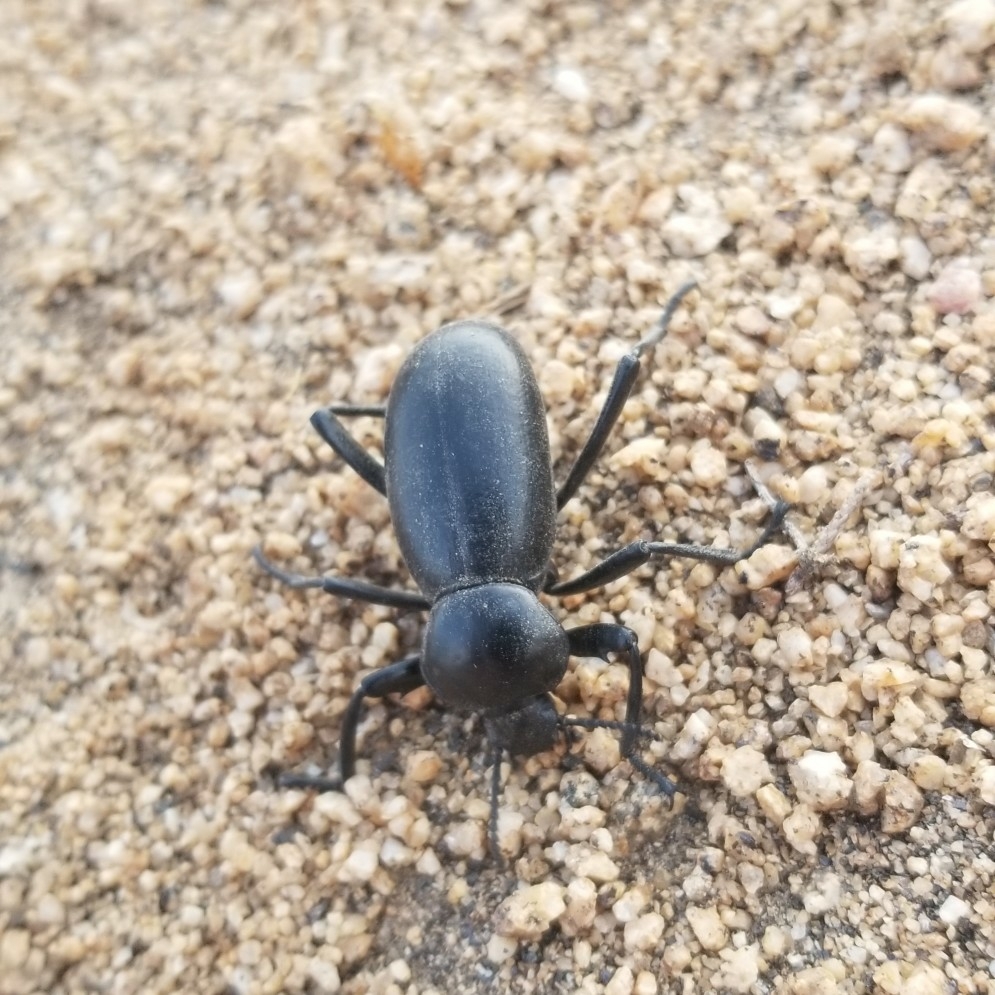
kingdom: Animalia
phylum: Arthropoda
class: Insecta
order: Coleoptera
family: Tenebrionidae
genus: Eleodes
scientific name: Eleodes grandicollis
